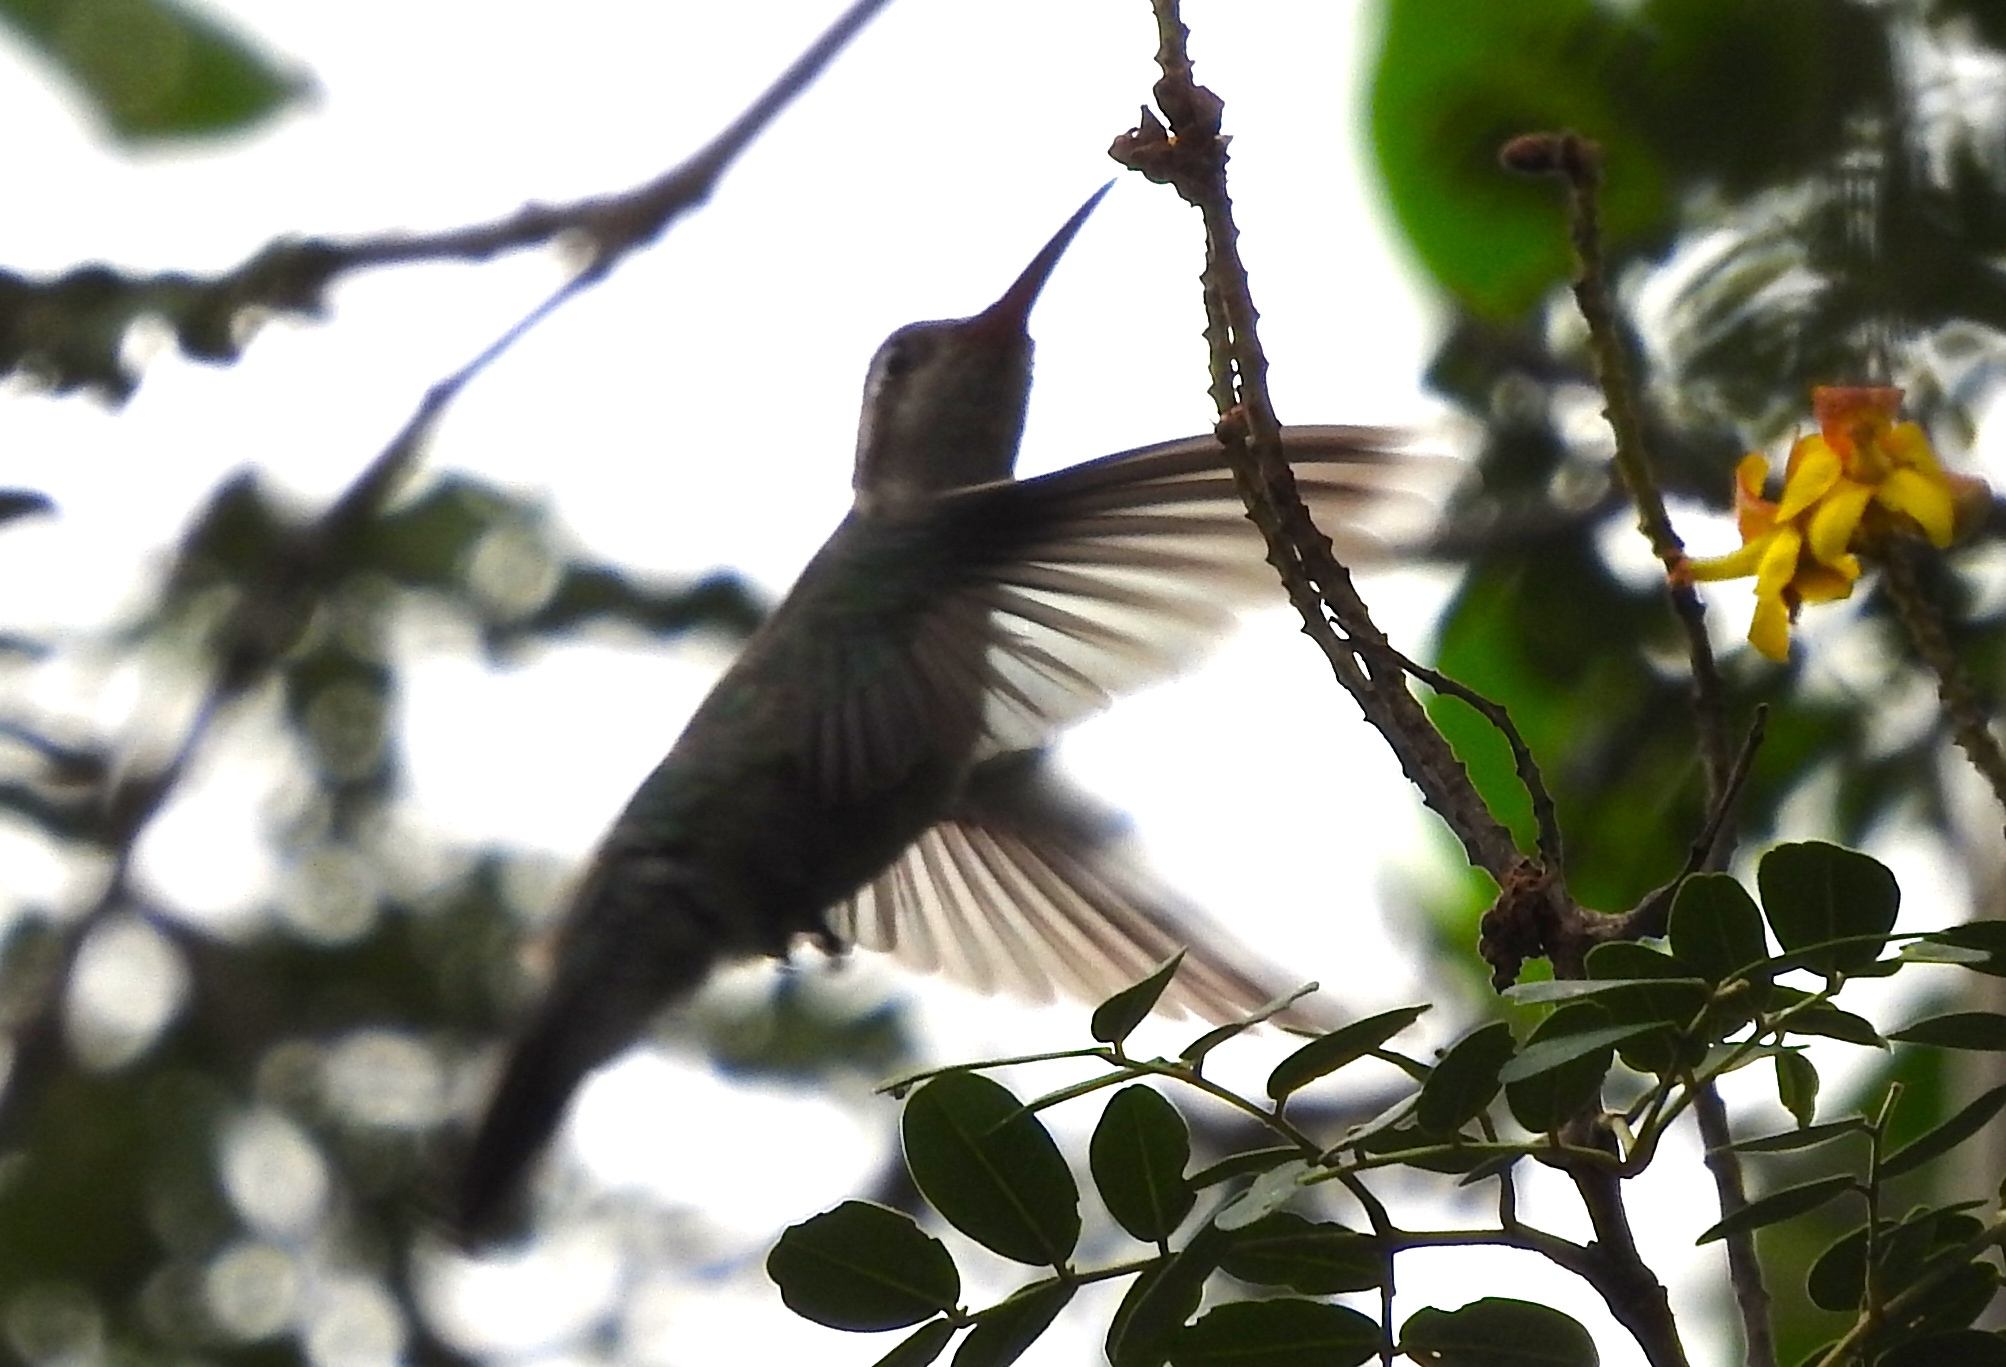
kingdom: Animalia
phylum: Chordata
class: Aves
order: Apodiformes
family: Trochilidae
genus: Cynanthus
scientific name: Cynanthus latirostris
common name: Broad-billed hummingbird
